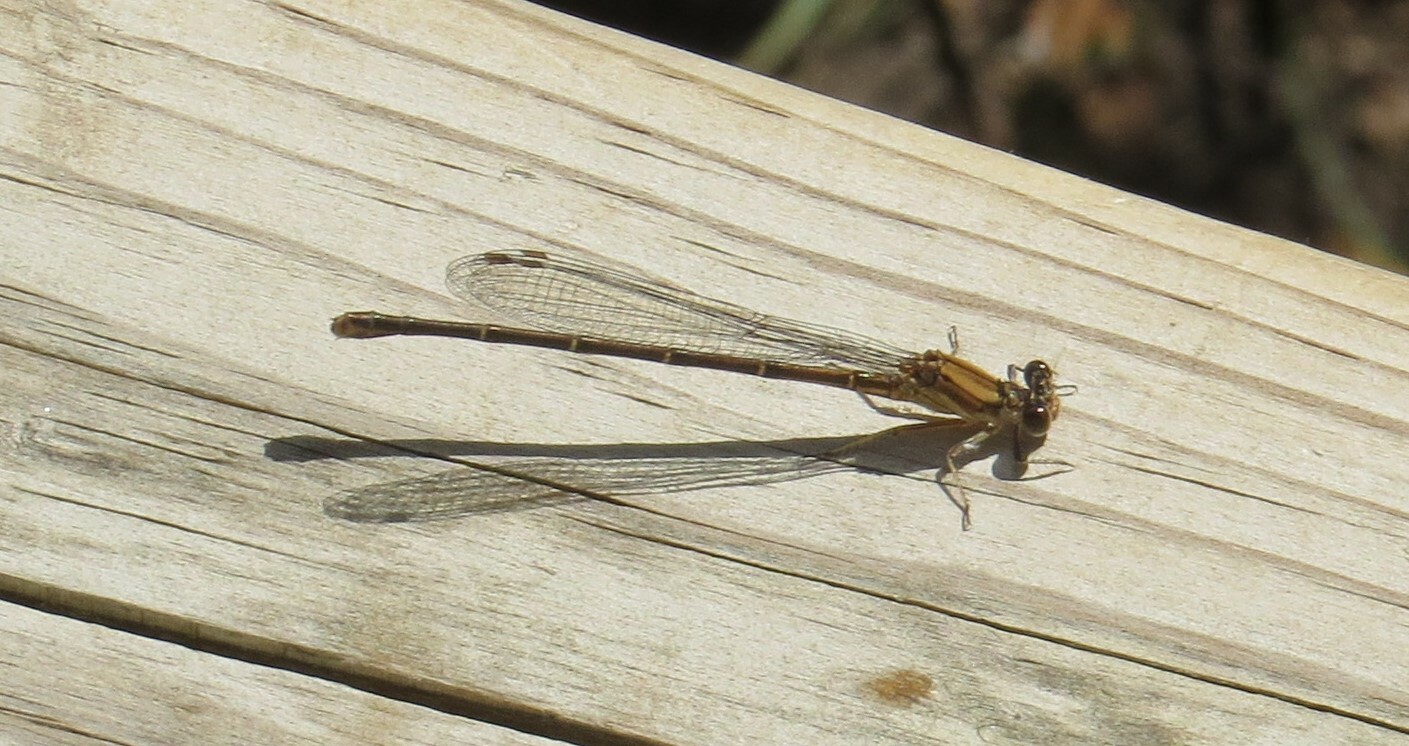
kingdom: Animalia
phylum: Arthropoda
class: Insecta
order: Odonata
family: Coenagrionidae
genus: Argia
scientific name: Argia moesta
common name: Powdered dancer
